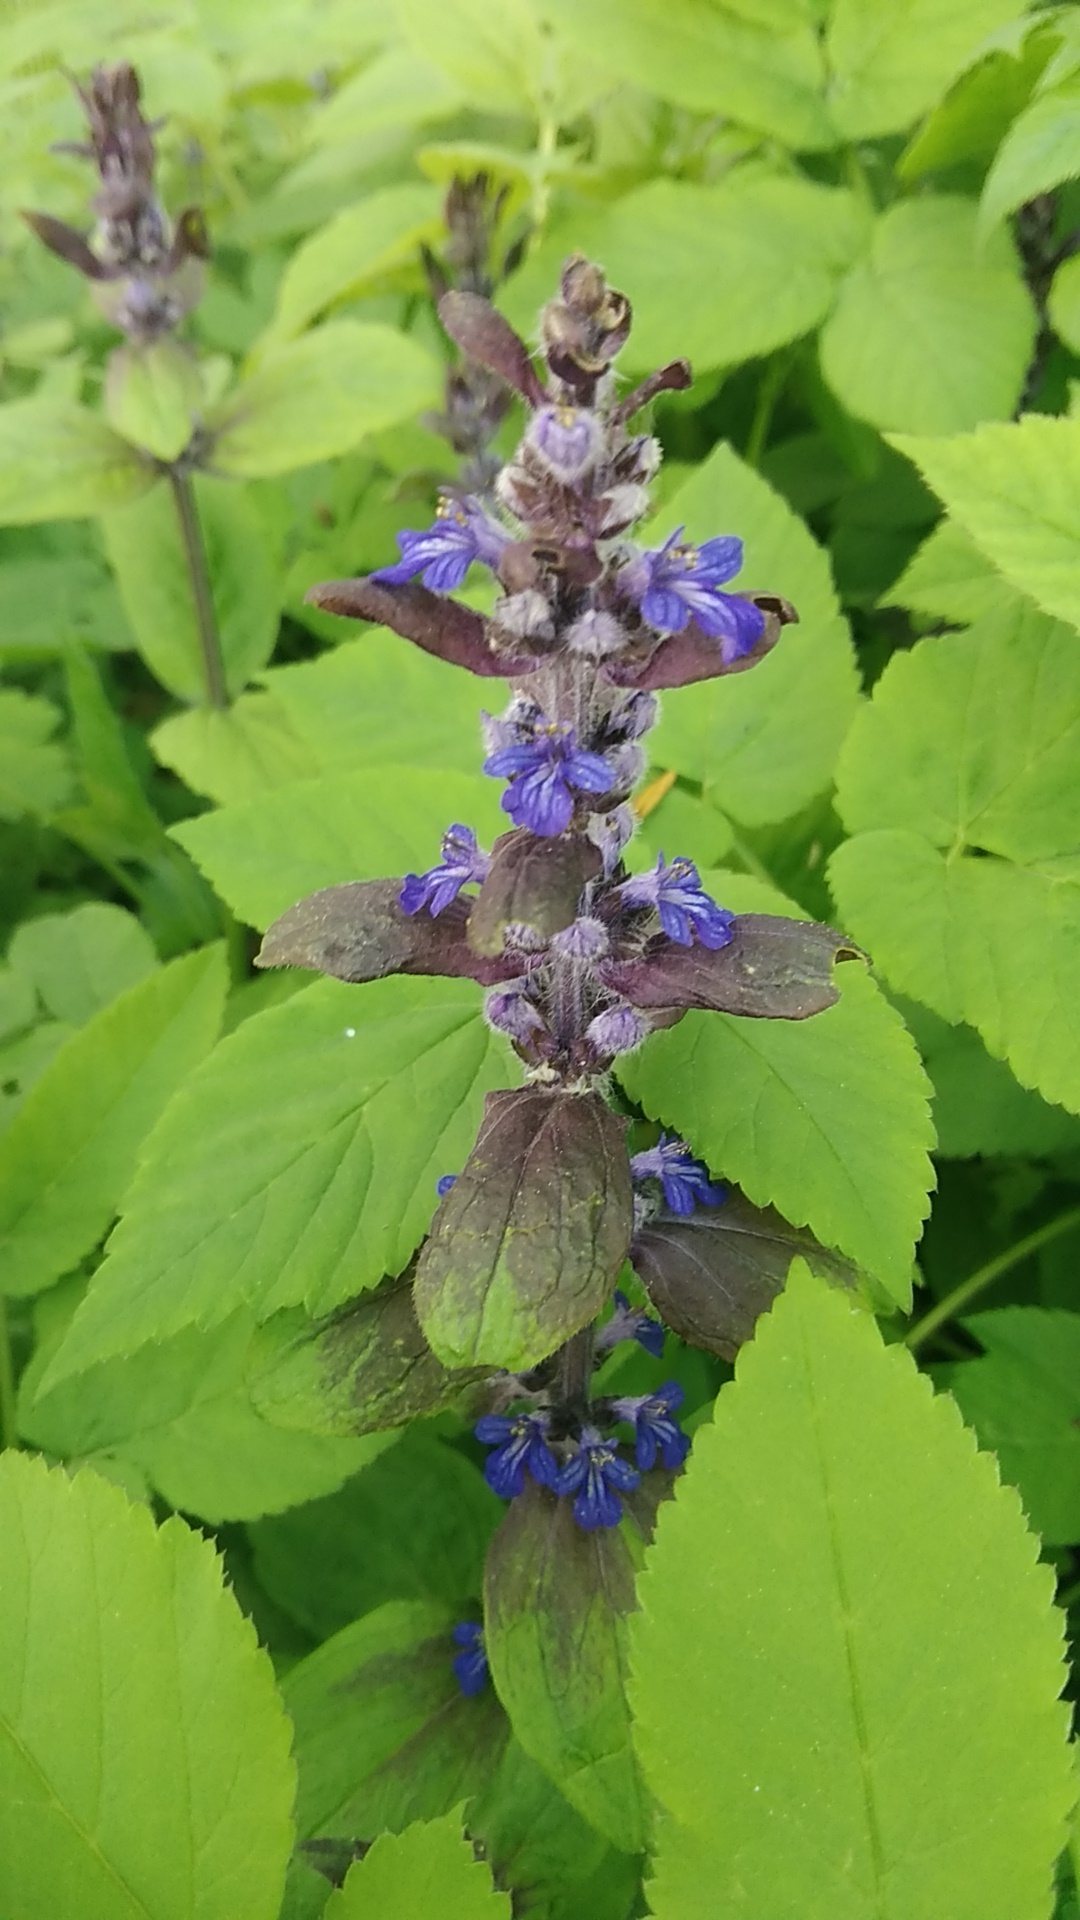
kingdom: Plantae
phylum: Tracheophyta
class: Magnoliopsida
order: Lamiales
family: Lamiaceae
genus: Ajuga
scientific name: Ajuga reptans
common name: Bugle
